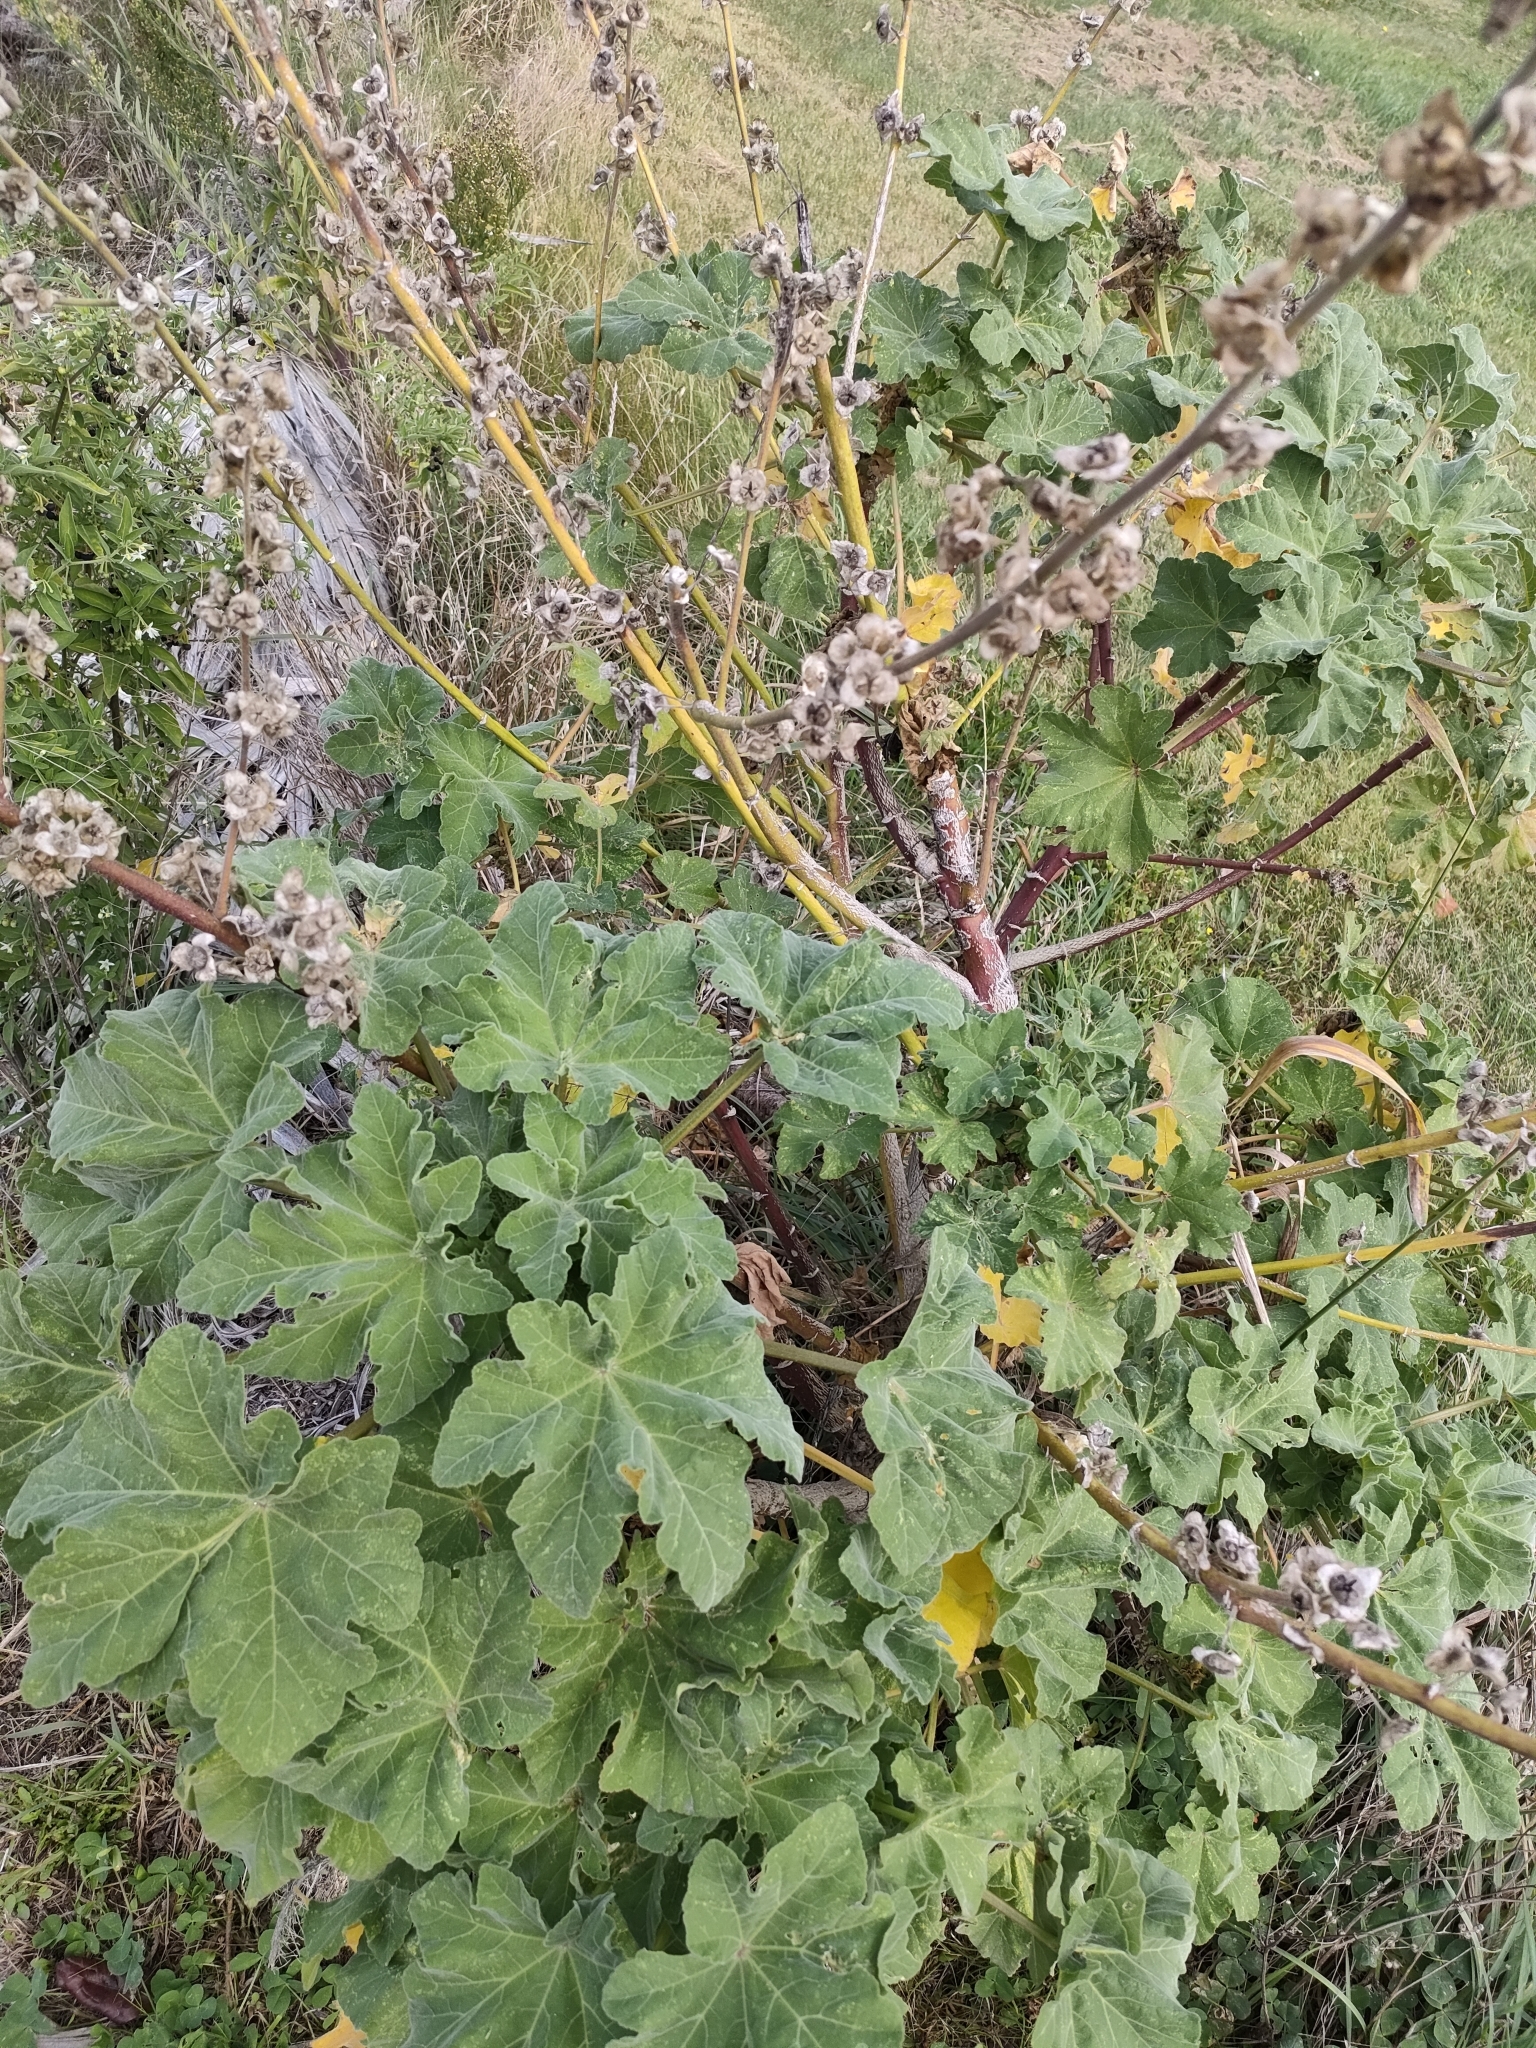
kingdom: Plantae
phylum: Tracheophyta
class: Magnoliopsida
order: Malvales
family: Malvaceae
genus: Malva
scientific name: Malva arborea
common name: Tree mallow
